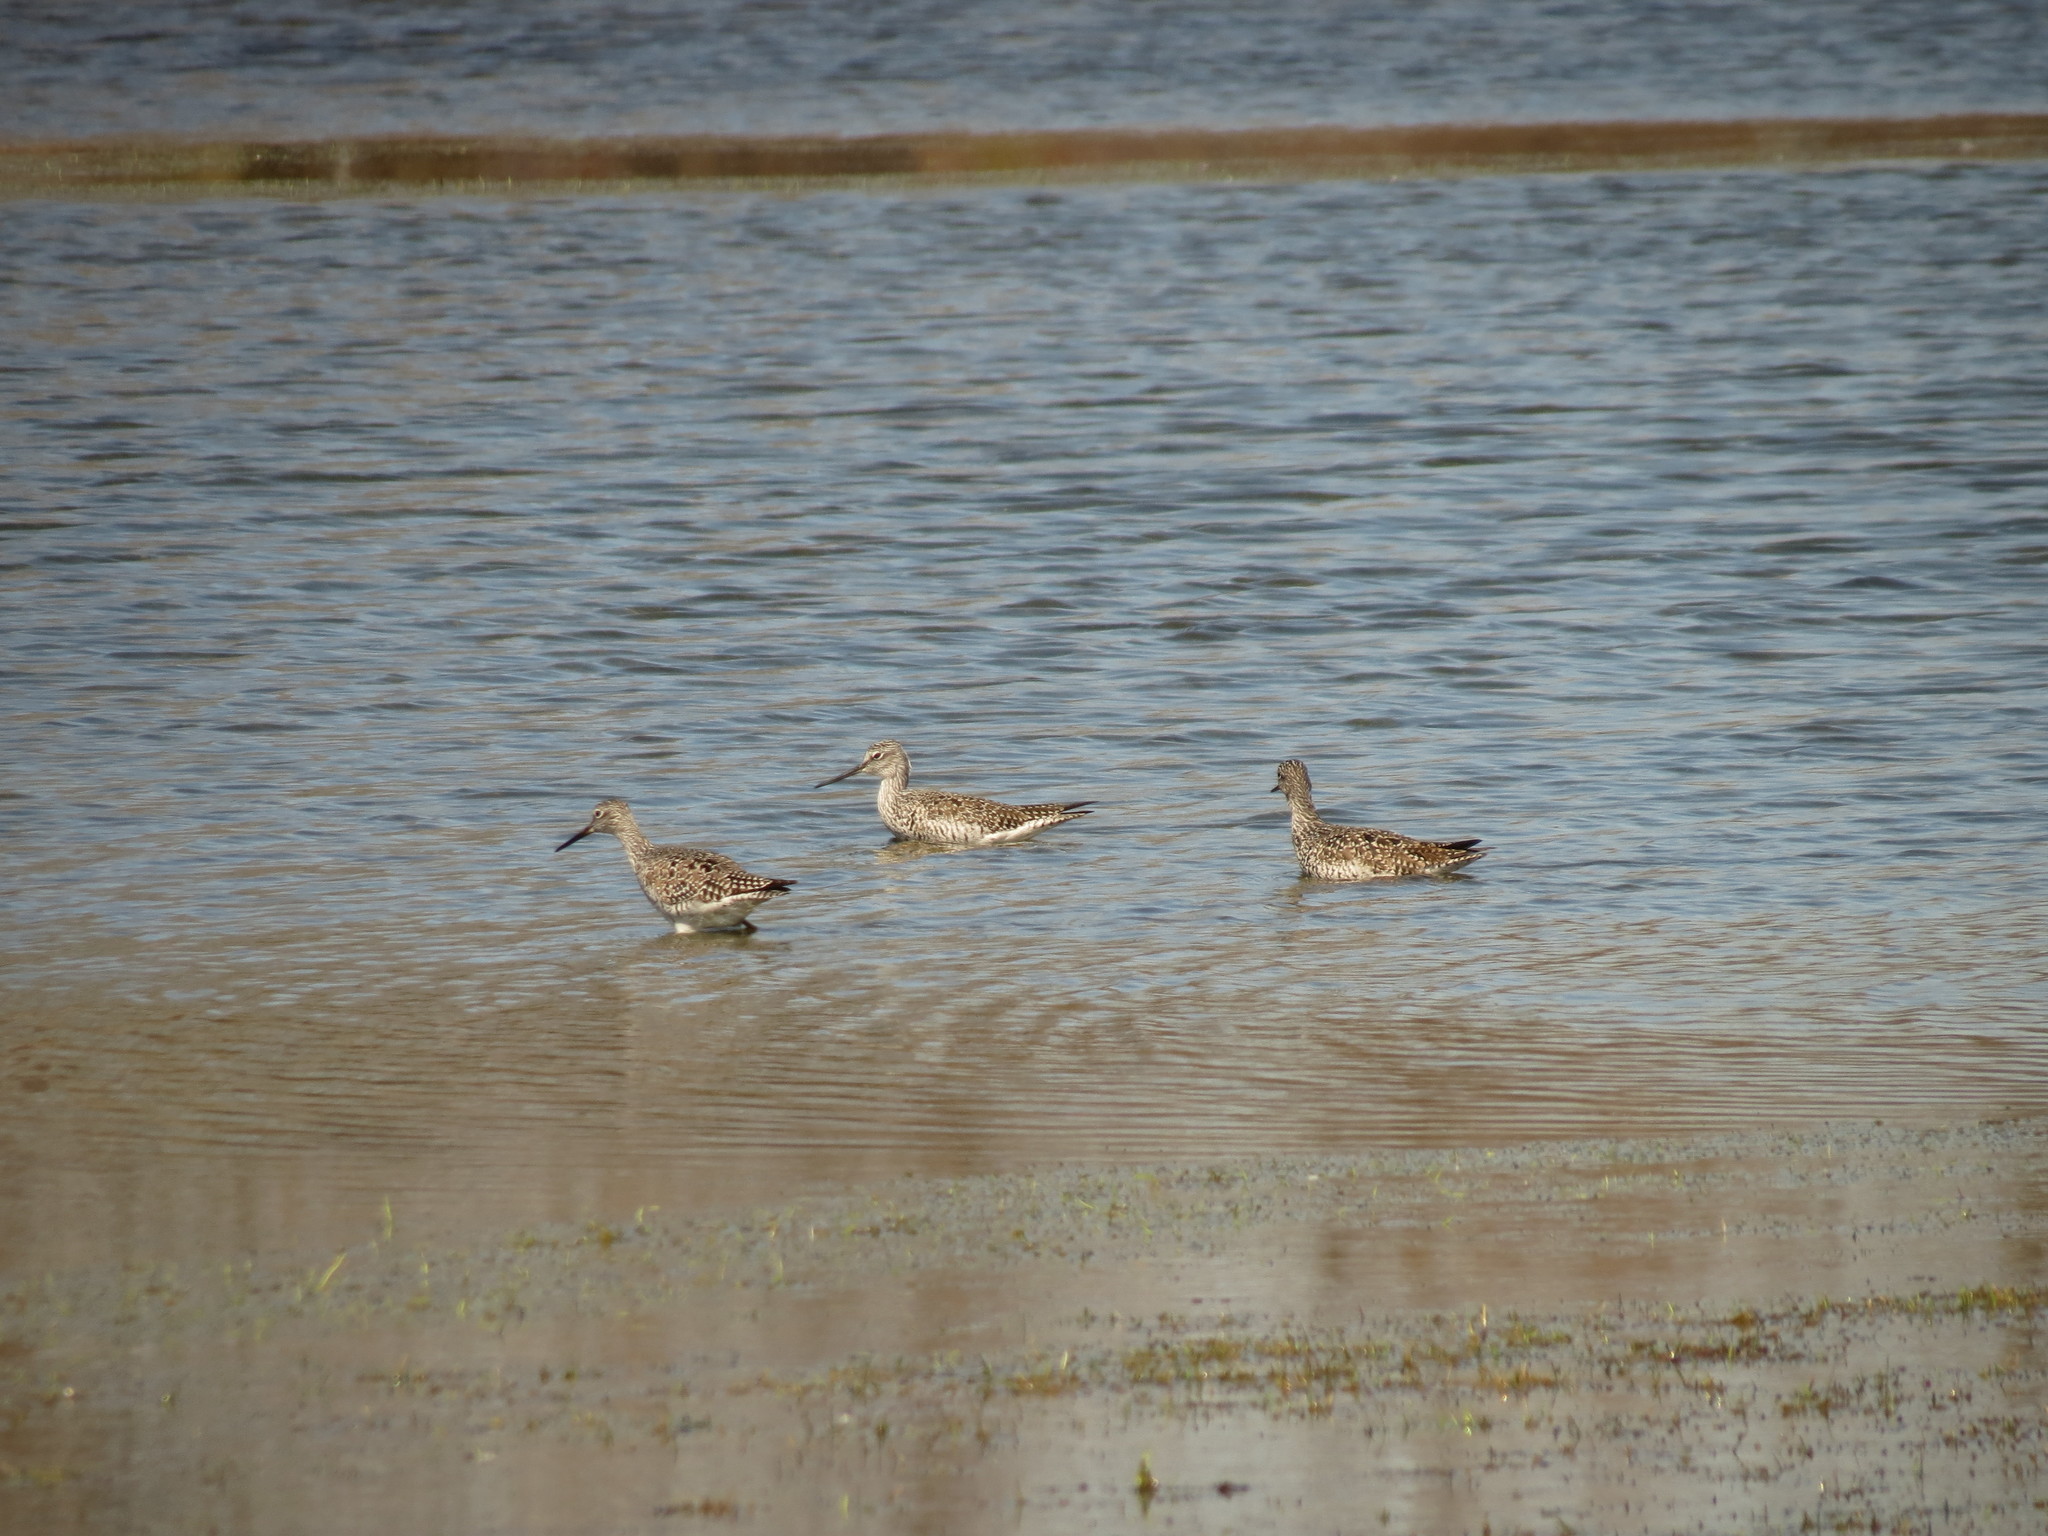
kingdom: Animalia
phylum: Chordata
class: Aves
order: Charadriiformes
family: Scolopacidae
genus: Tringa
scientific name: Tringa melanoleuca
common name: Greater yellowlegs
